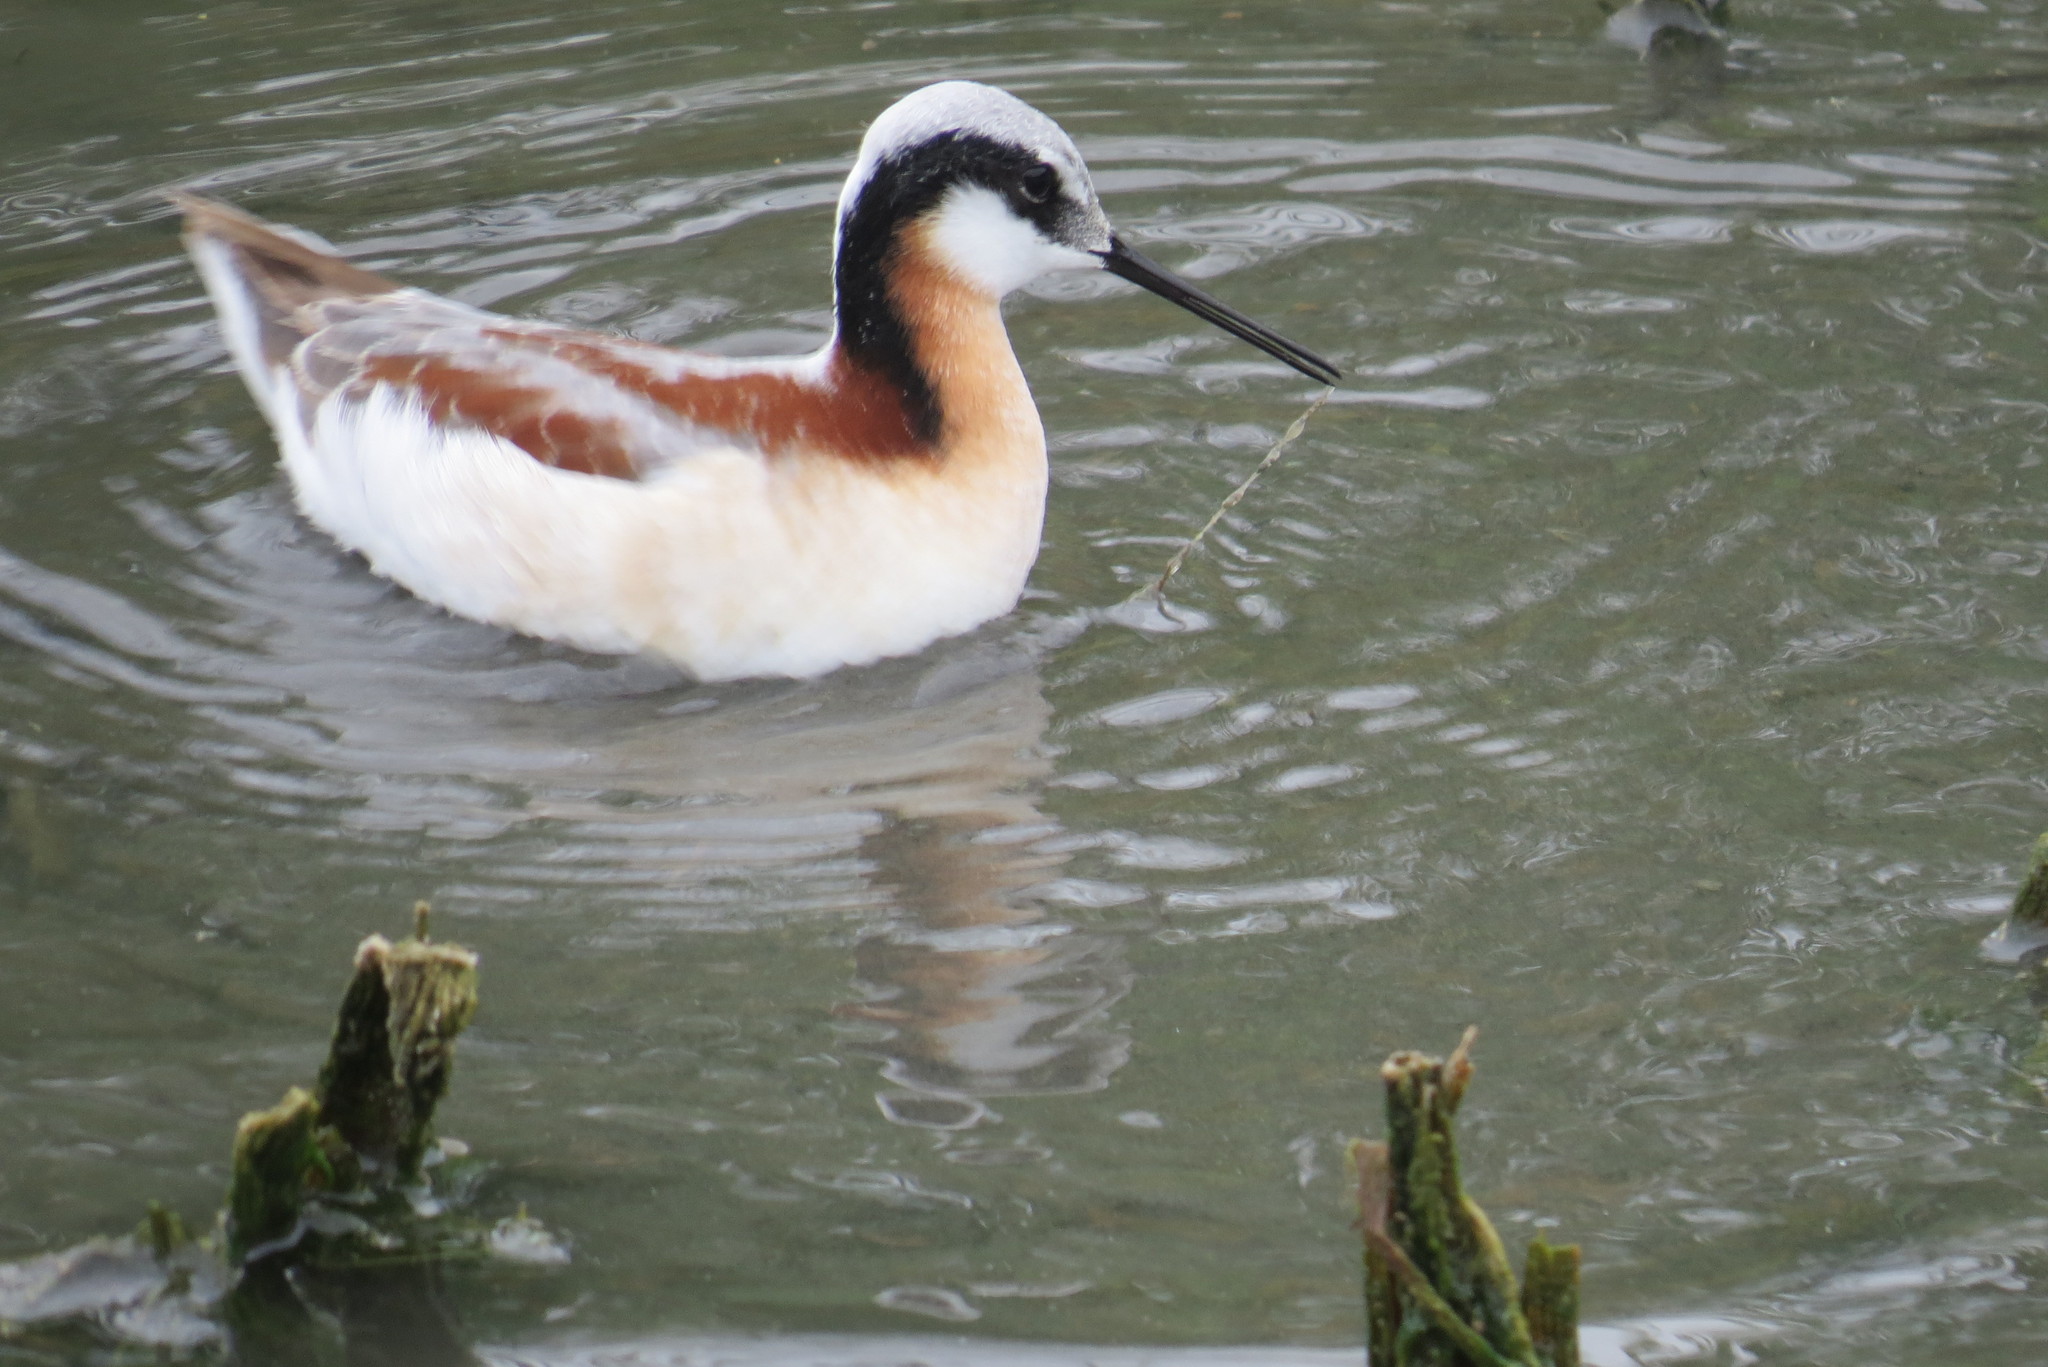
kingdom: Animalia
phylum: Chordata
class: Aves
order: Charadriiformes
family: Scolopacidae
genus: Phalaropus
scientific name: Phalaropus tricolor
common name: Wilson's phalarope
